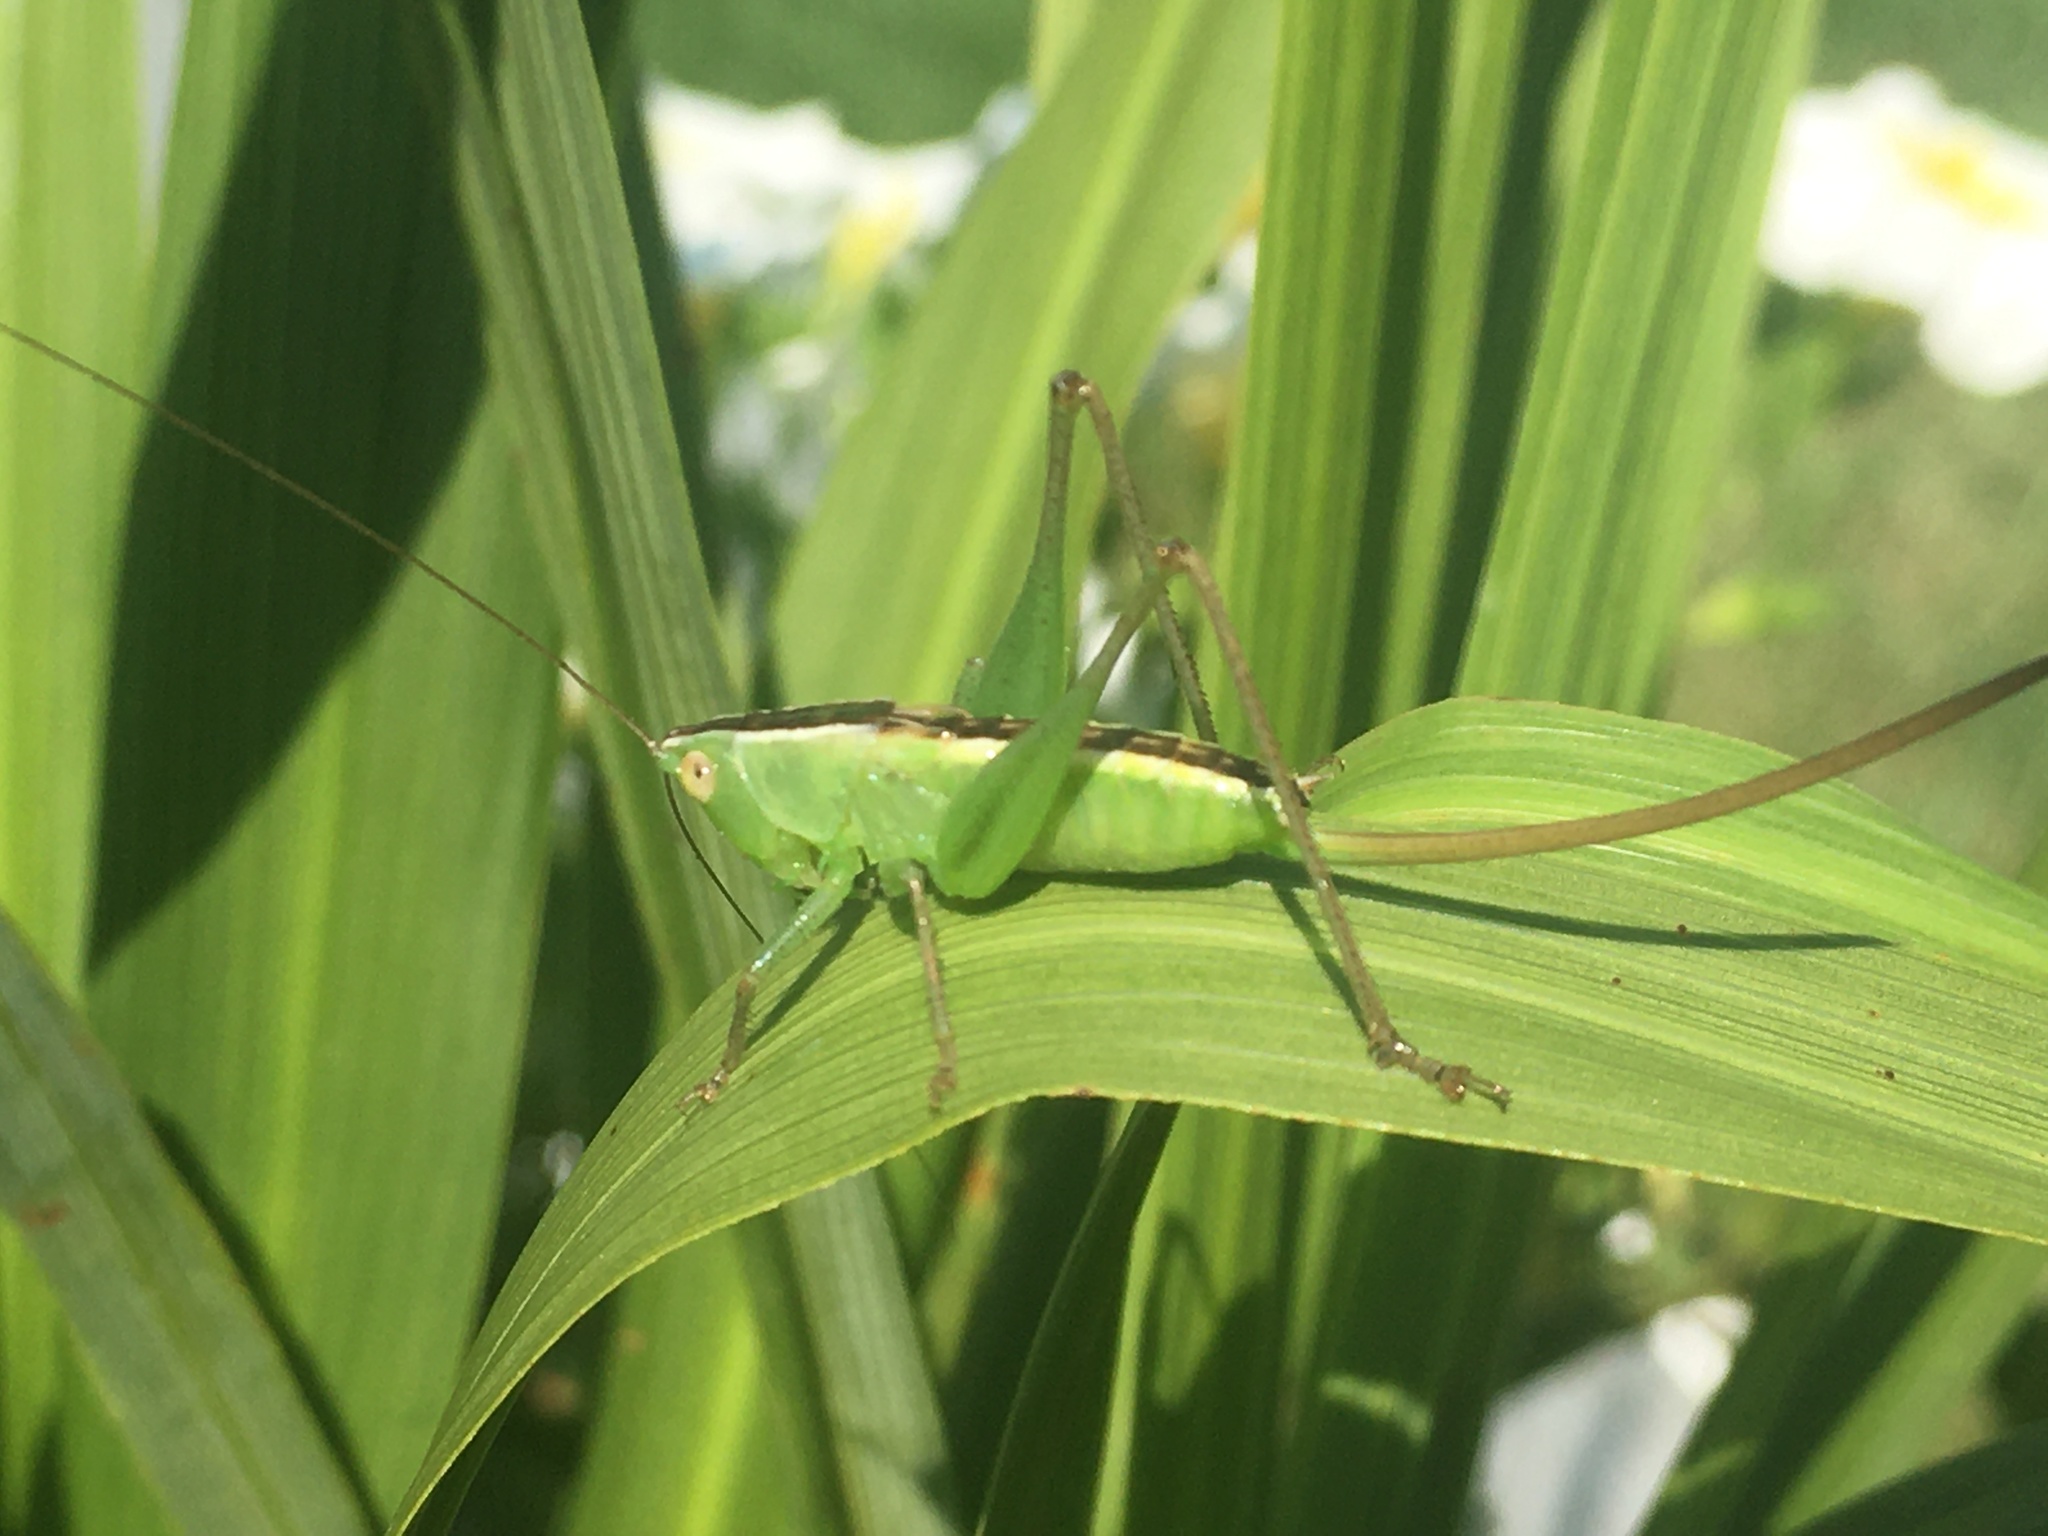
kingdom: Animalia
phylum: Arthropoda
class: Insecta
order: Orthoptera
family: Tettigoniidae
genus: Conocephalus
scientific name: Conocephalus strictus
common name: Straight-lanced katydid
